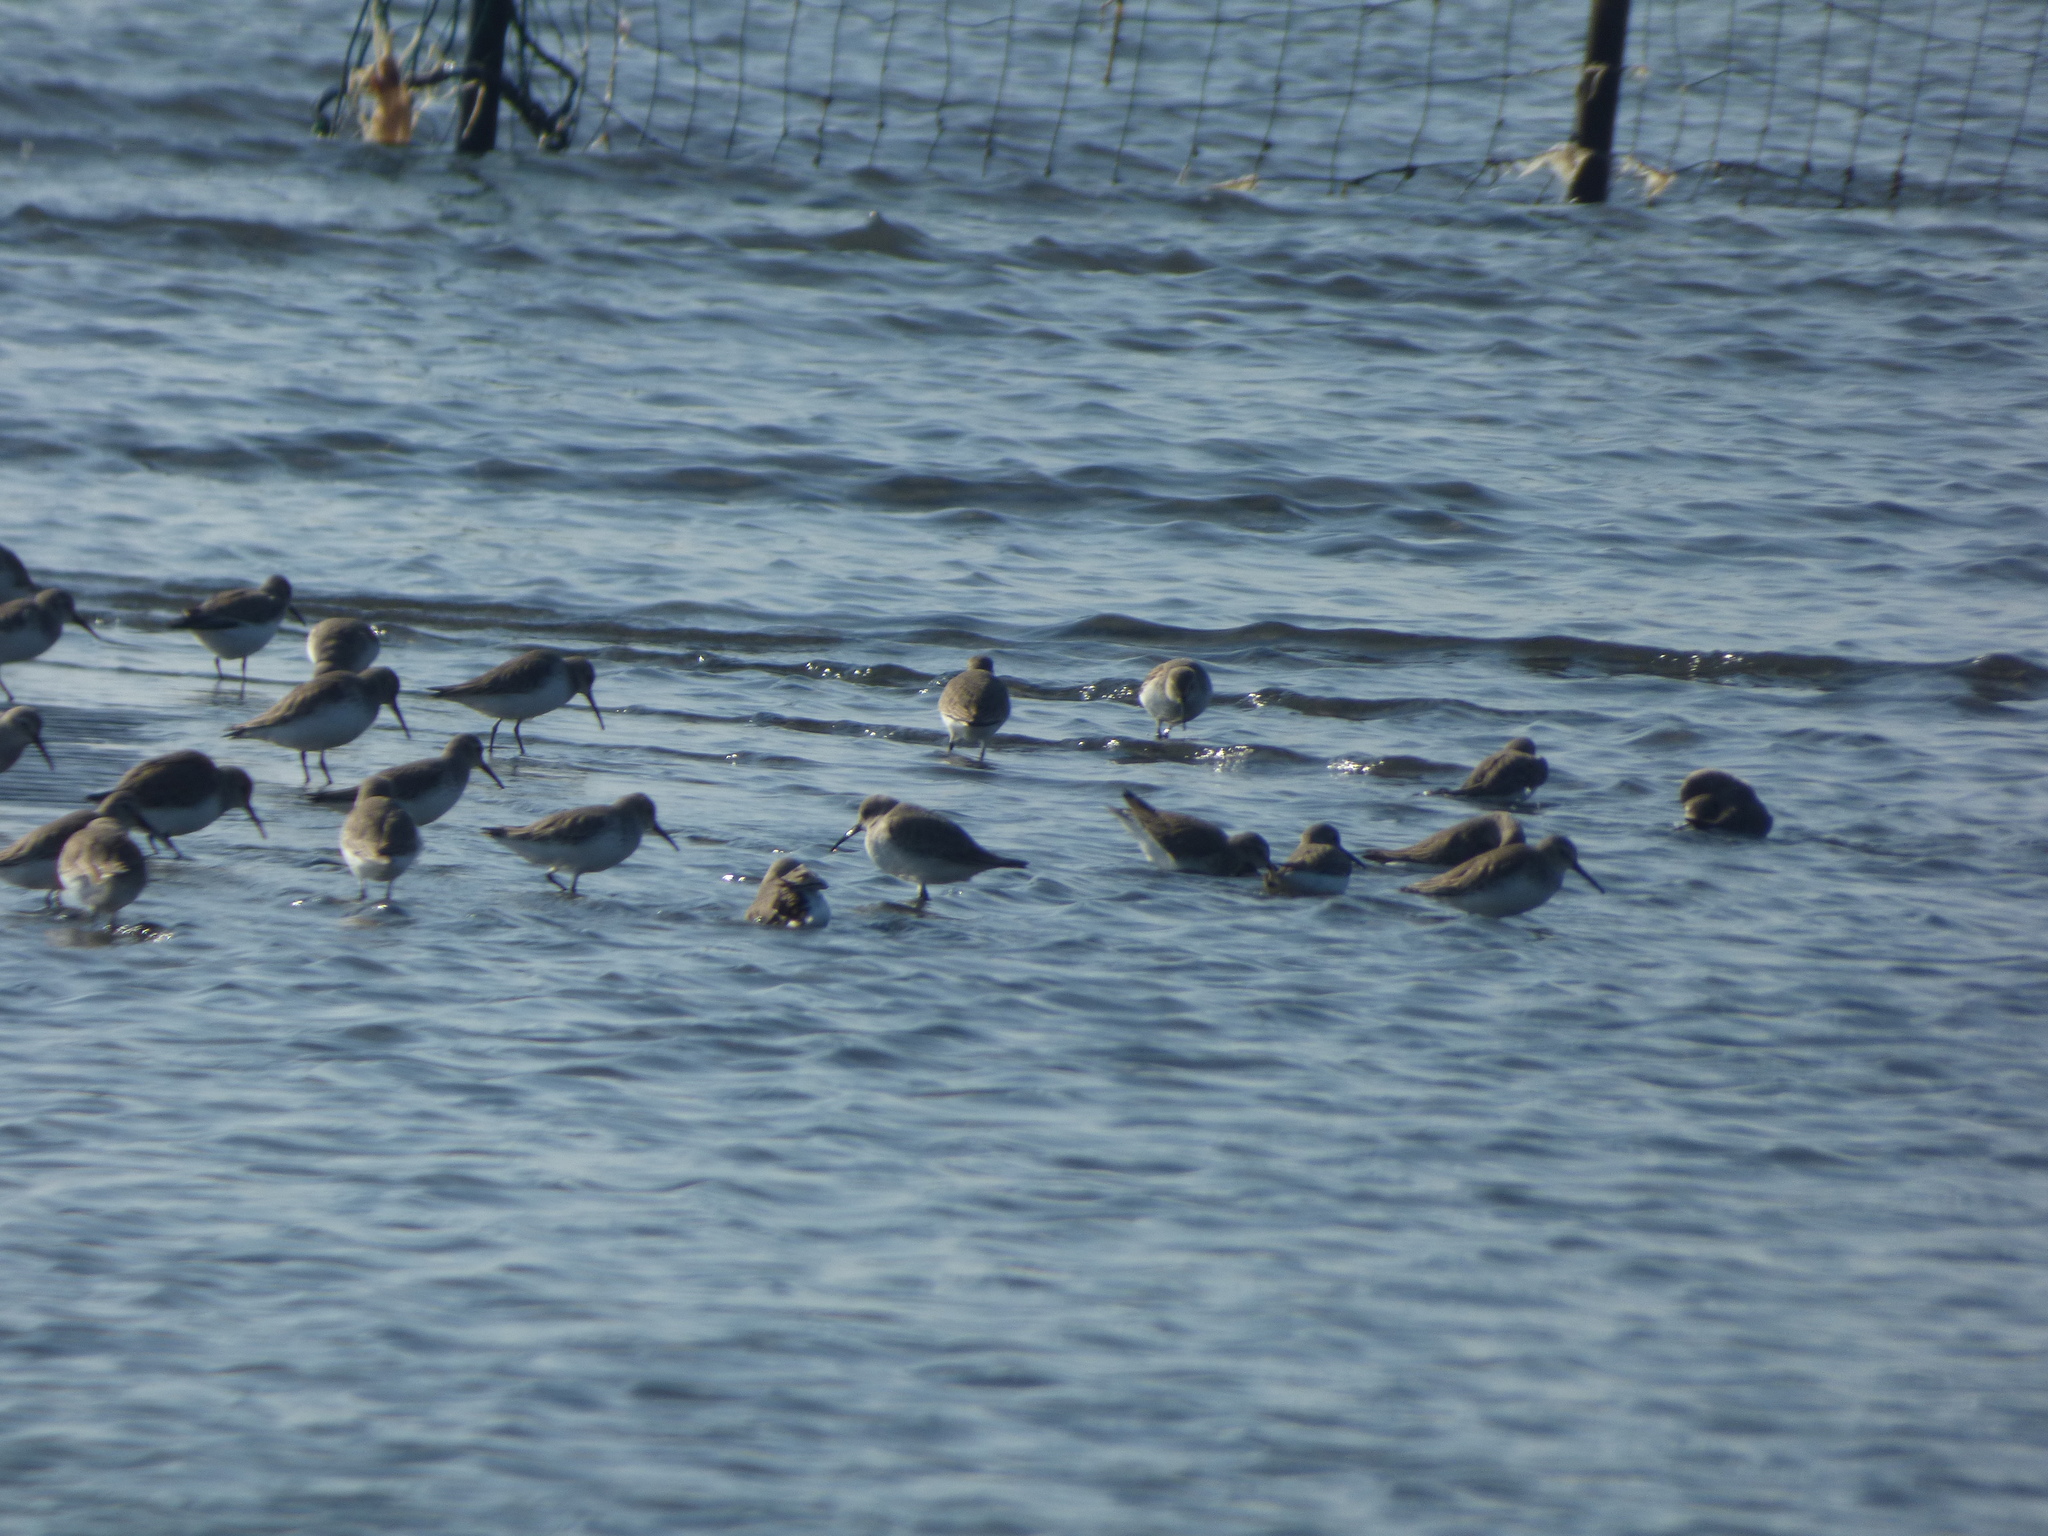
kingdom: Animalia
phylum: Chordata
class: Aves
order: Charadriiformes
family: Scolopacidae
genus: Calidris
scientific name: Calidris alpina
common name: Dunlin
